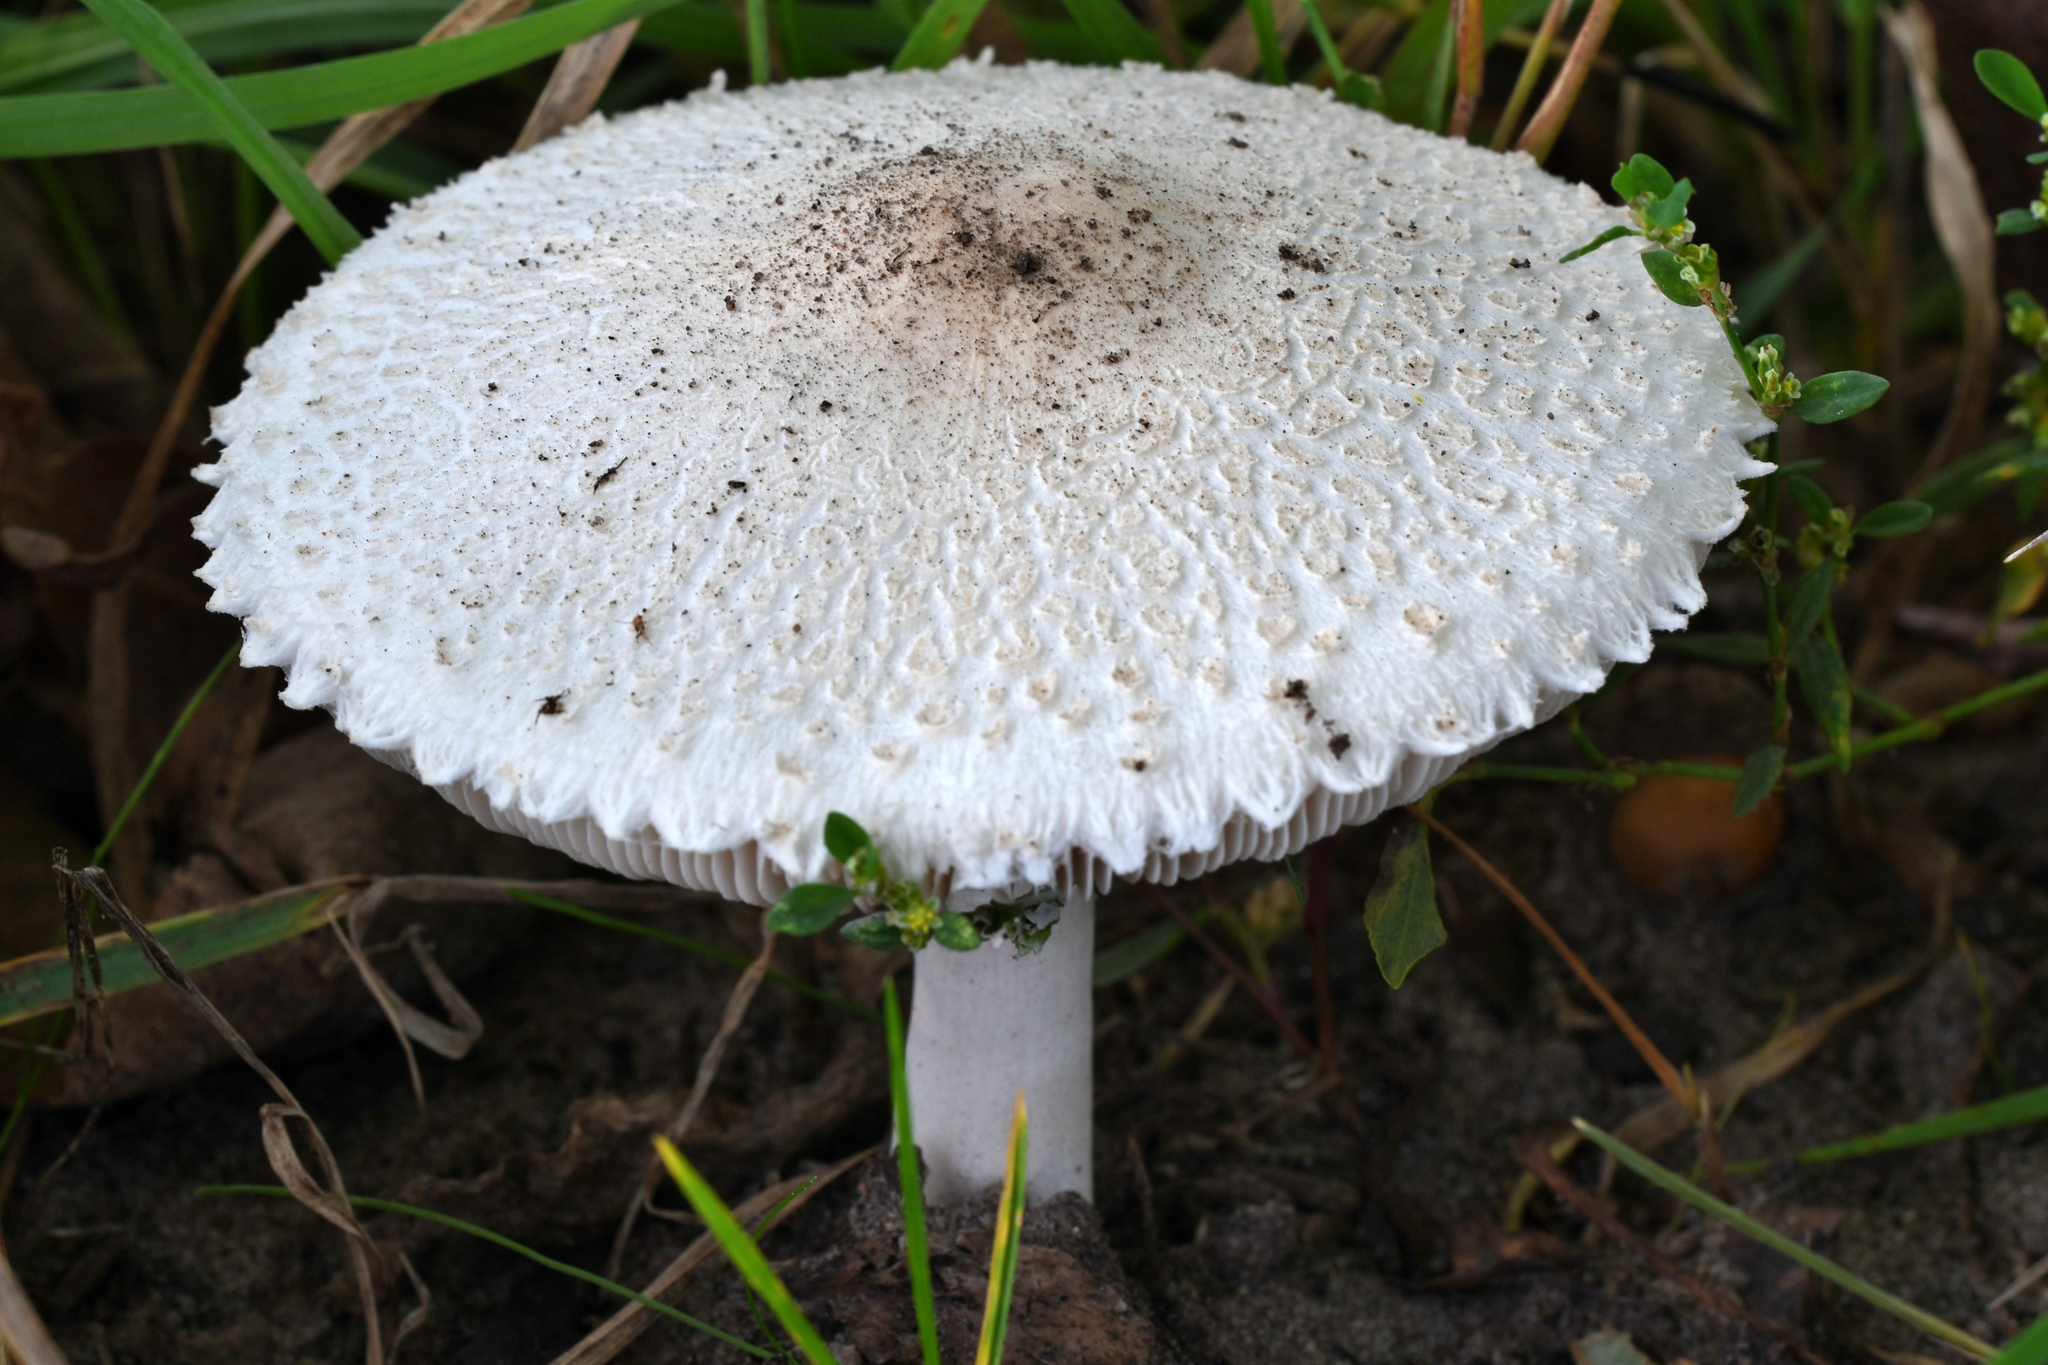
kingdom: Fungi
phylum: Basidiomycota
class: Agaricomycetes
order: Agaricales
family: Agaricaceae
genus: Macrolepiota
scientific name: Macrolepiota excoriata
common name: Frayed parasol
